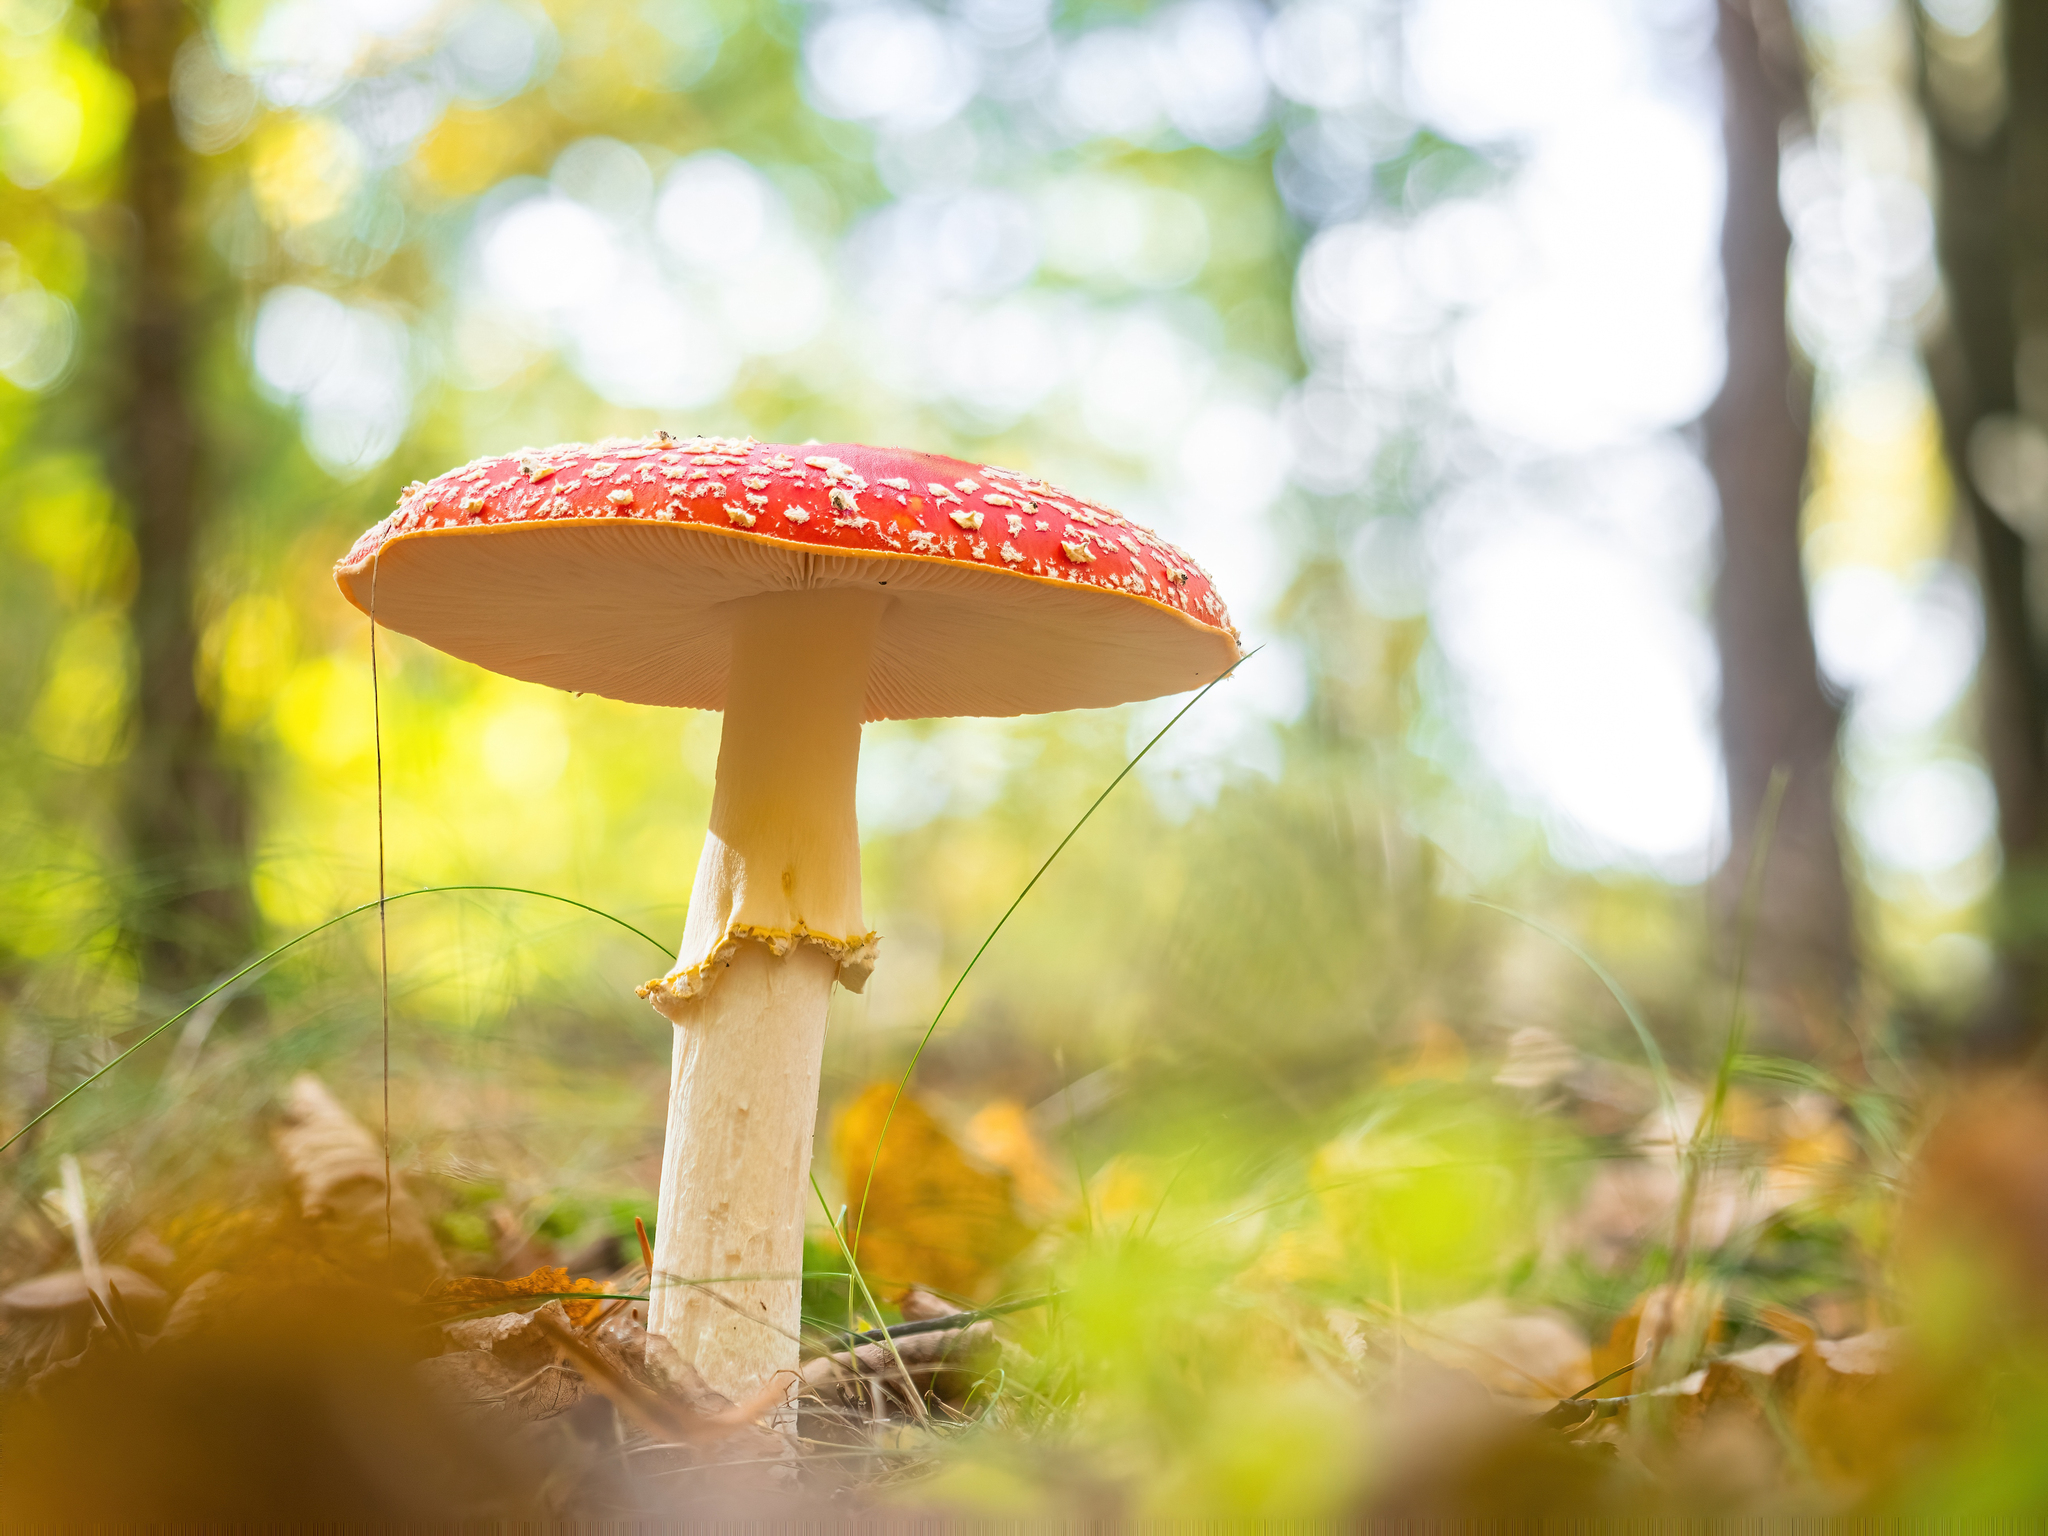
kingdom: Fungi
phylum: Basidiomycota
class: Agaricomycetes
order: Agaricales
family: Amanitaceae
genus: Amanita
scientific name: Amanita muscaria
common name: Fly agaric
